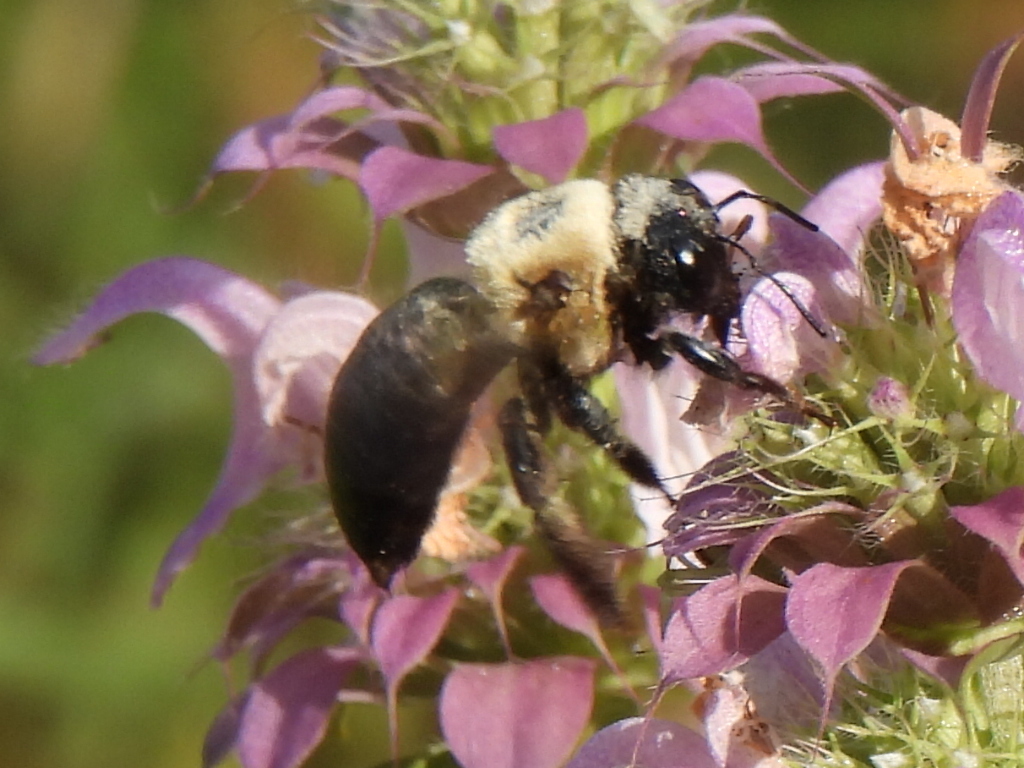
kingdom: Animalia
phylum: Arthropoda
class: Insecta
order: Hymenoptera
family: Apidae
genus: Xylocopa
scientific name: Xylocopa virginica
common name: Carpenter bee
